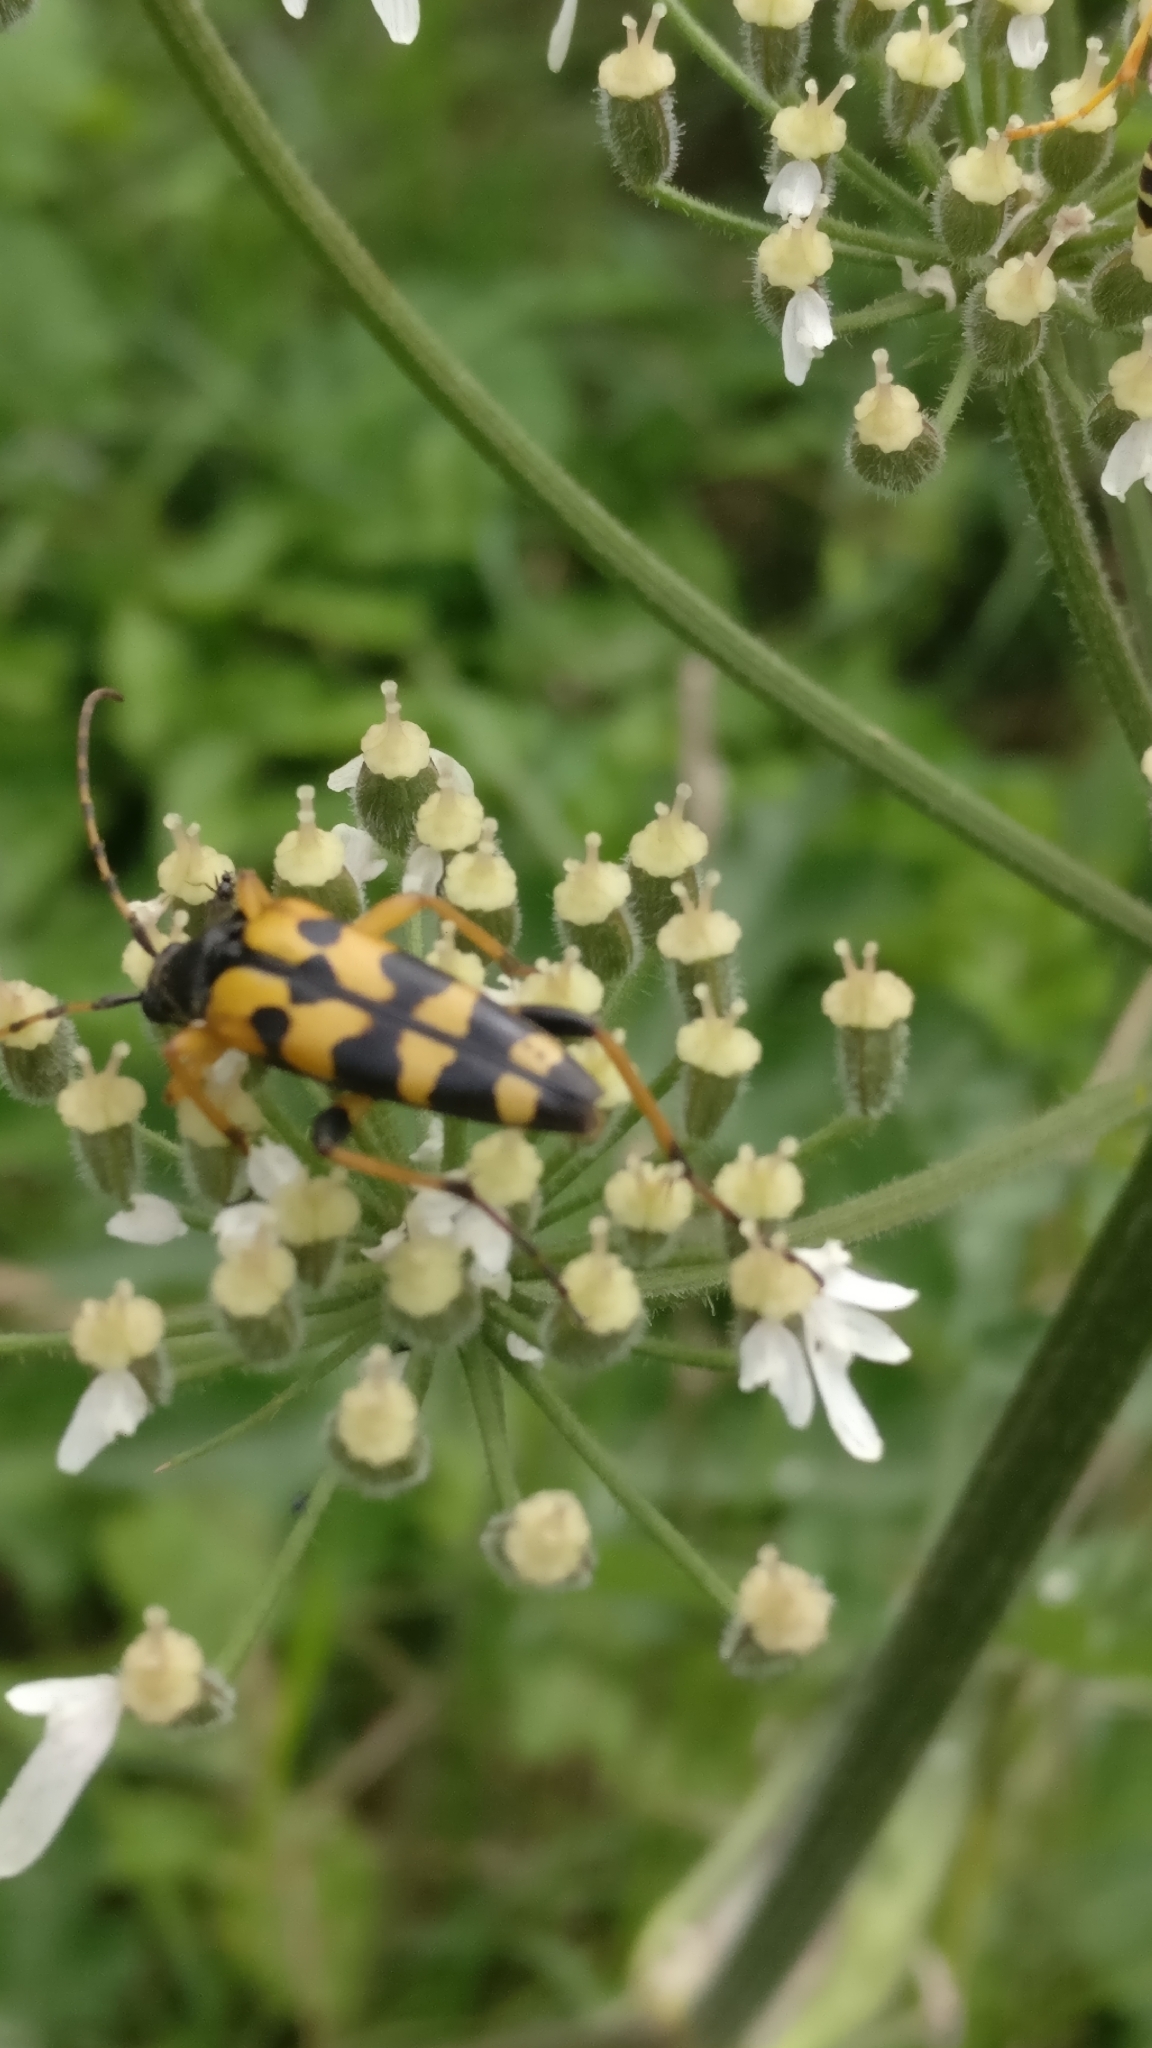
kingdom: Animalia
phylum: Arthropoda
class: Insecta
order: Coleoptera
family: Cerambycidae
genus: Rutpela
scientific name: Rutpela maculata
